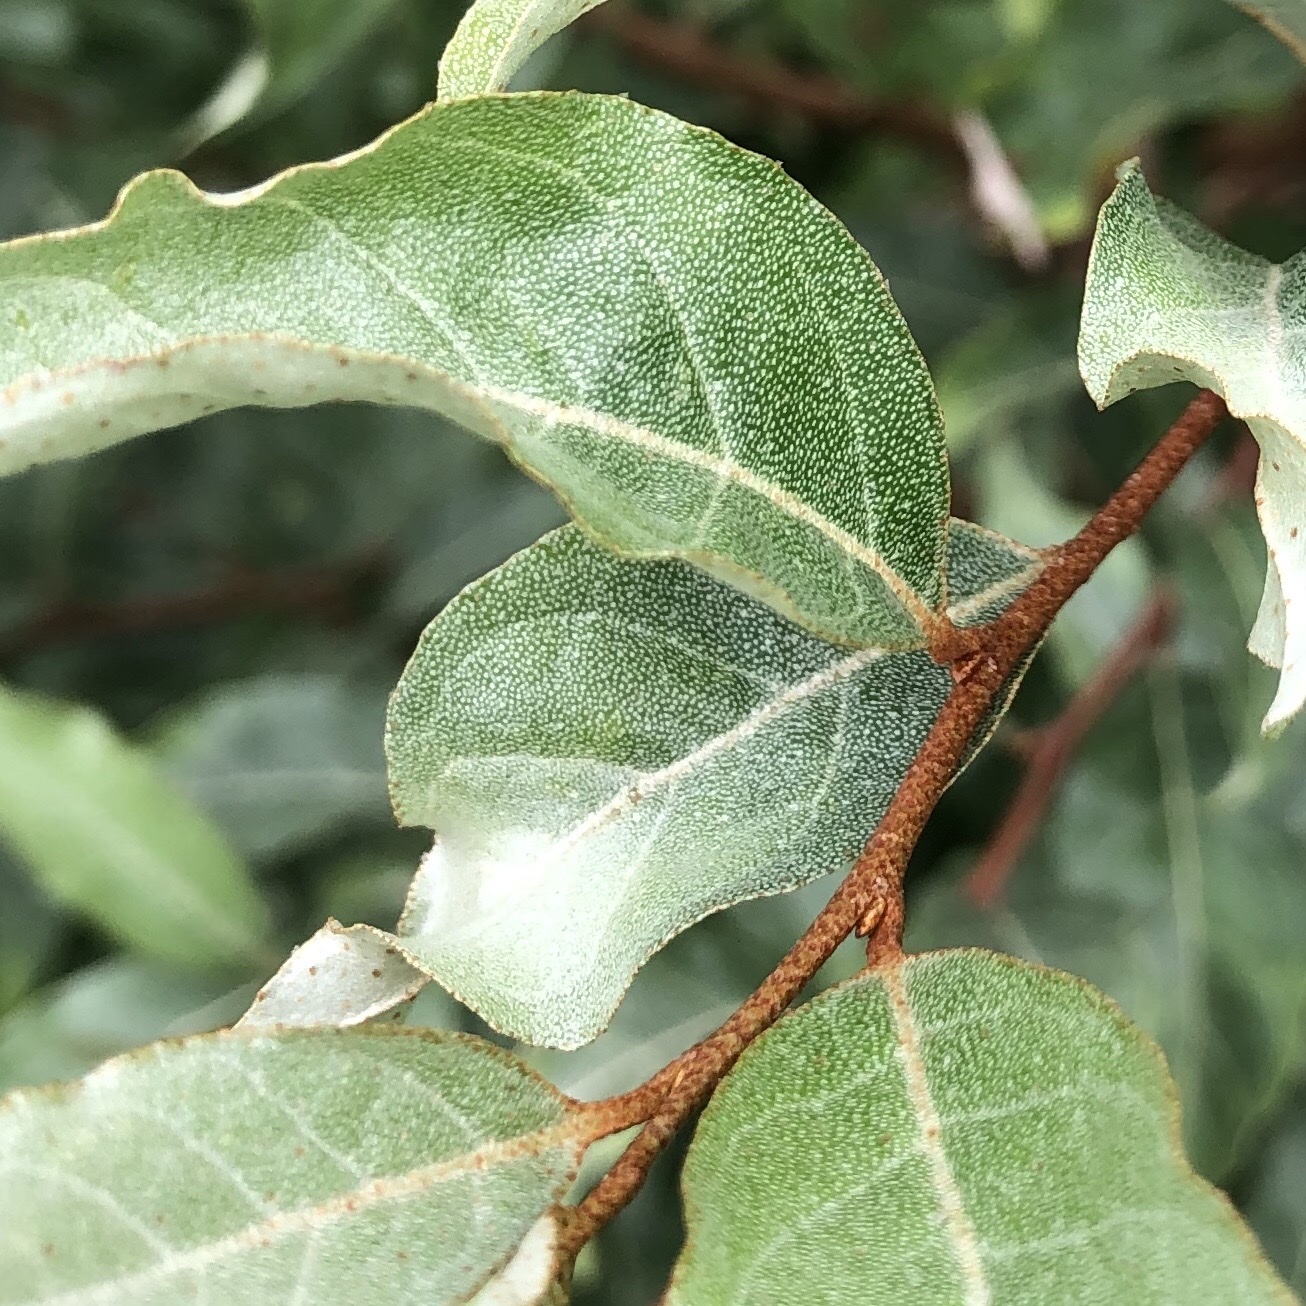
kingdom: Plantae
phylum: Tracheophyta
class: Magnoliopsida
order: Rosales
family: Elaeagnaceae
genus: Elaeagnus
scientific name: Elaeagnus umbellata
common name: Autumn olive
